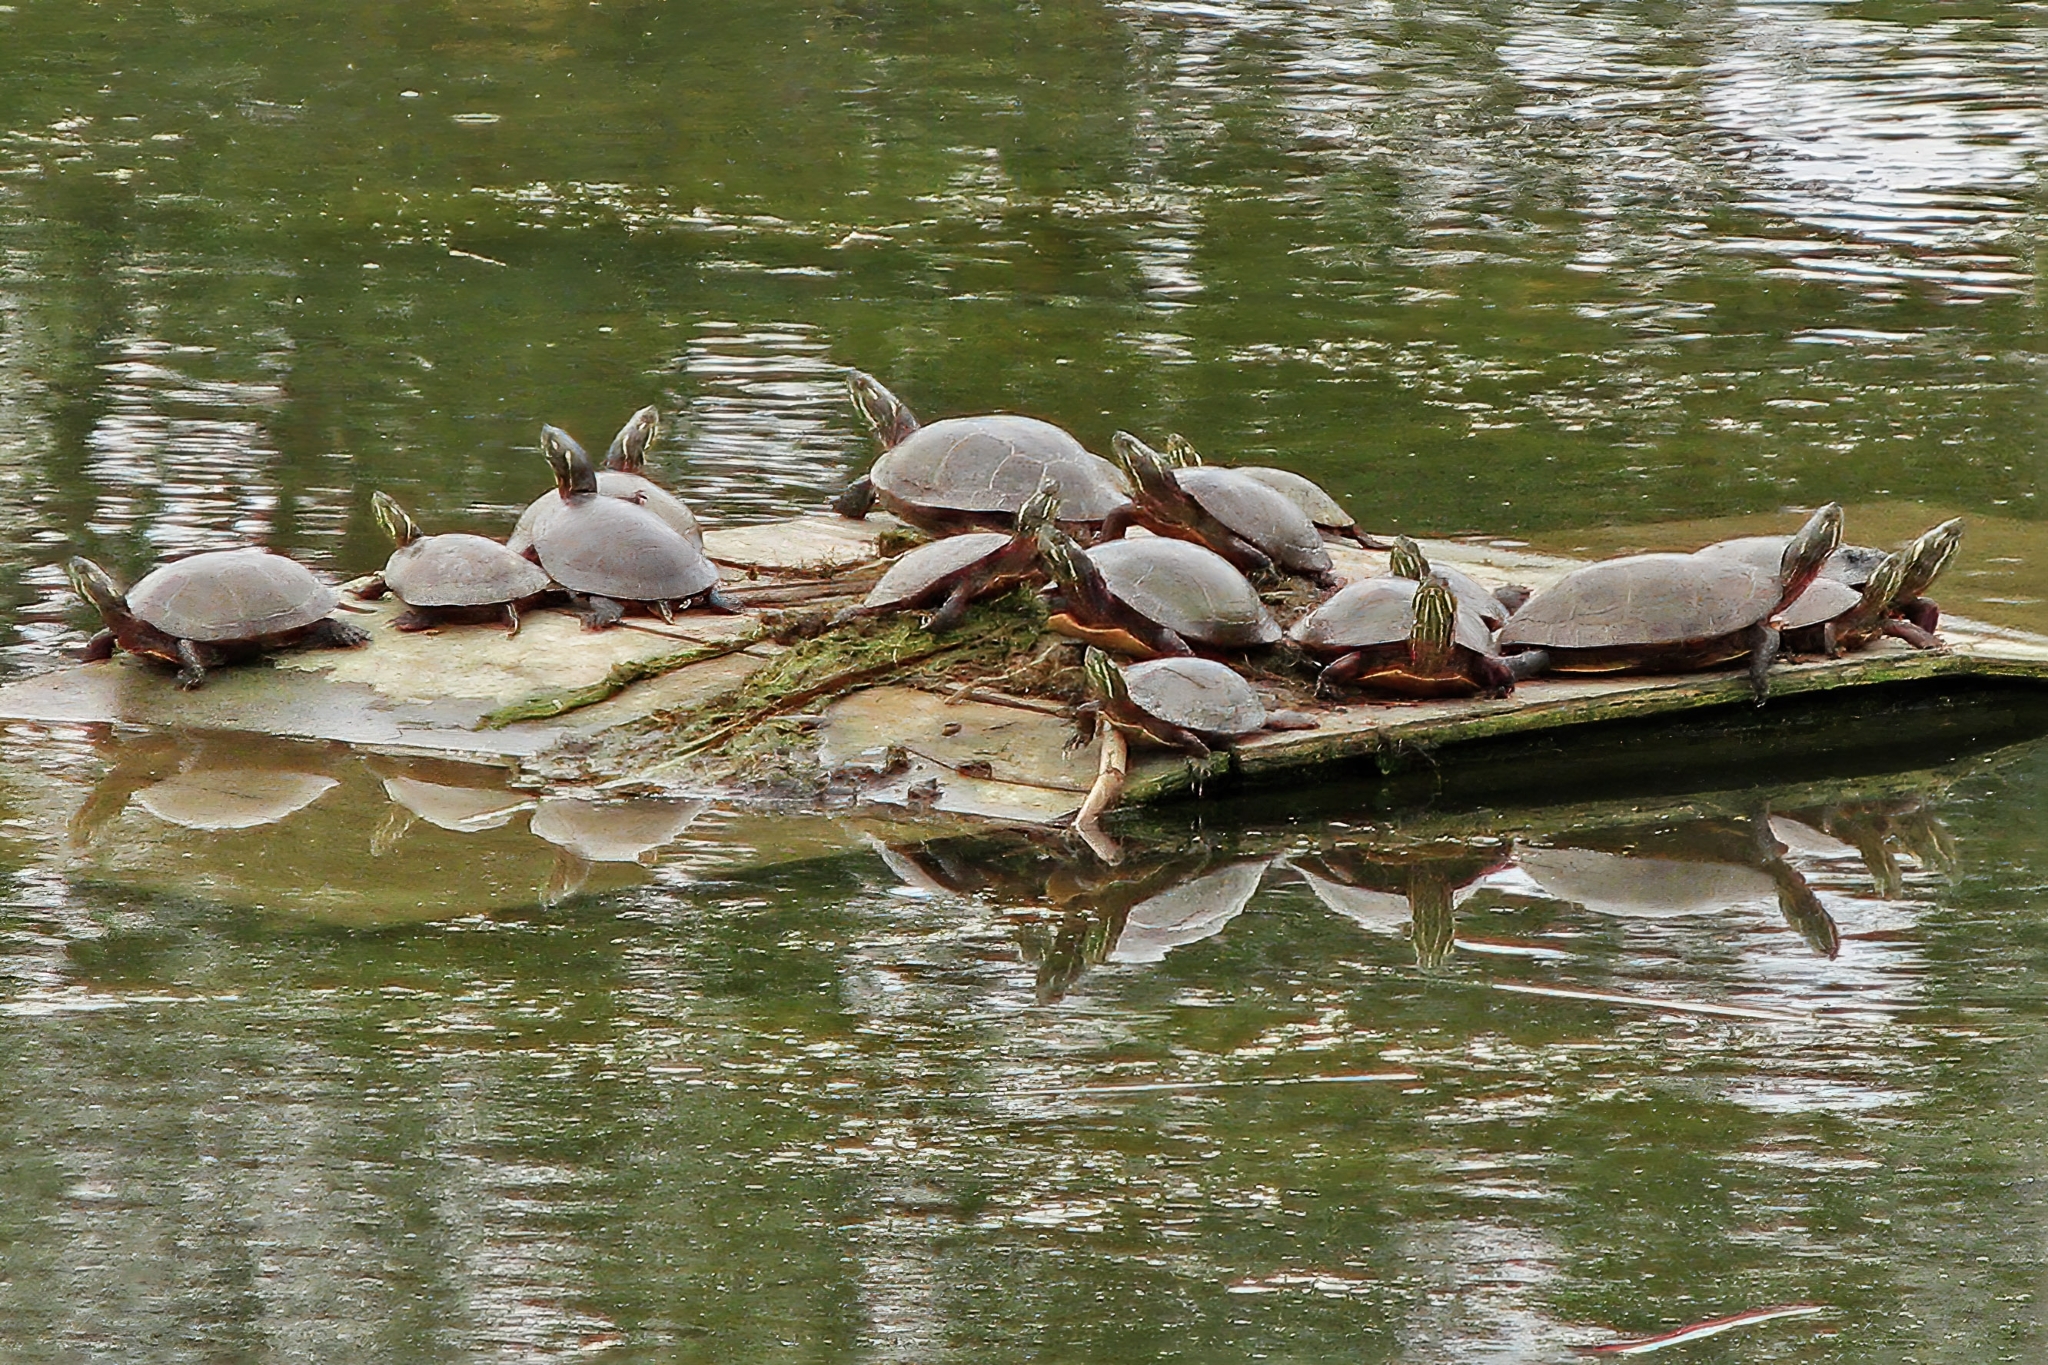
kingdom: Animalia
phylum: Chordata
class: Testudines
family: Emydidae
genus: Chrysemys
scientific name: Chrysemys picta
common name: Painted turtle
